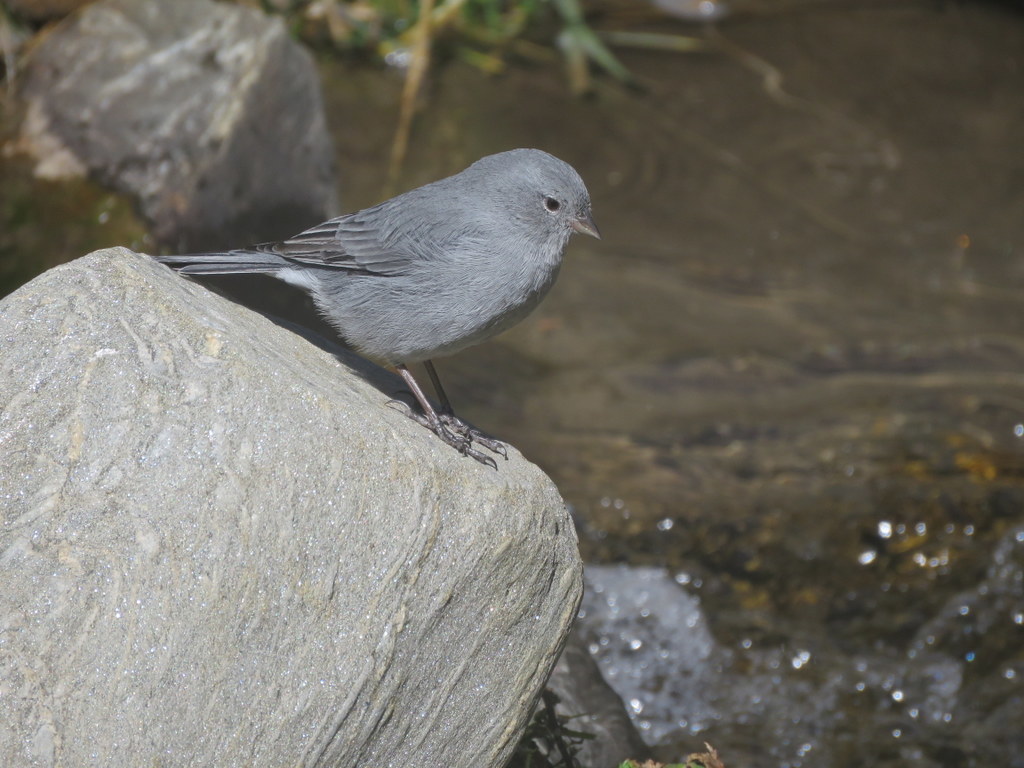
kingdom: Animalia
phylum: Chordata
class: Aves
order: Passeriformes
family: Thraupidae
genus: Geospizopsis
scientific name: Geospizopsis unicolor
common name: Plumbeous sierra-finch
